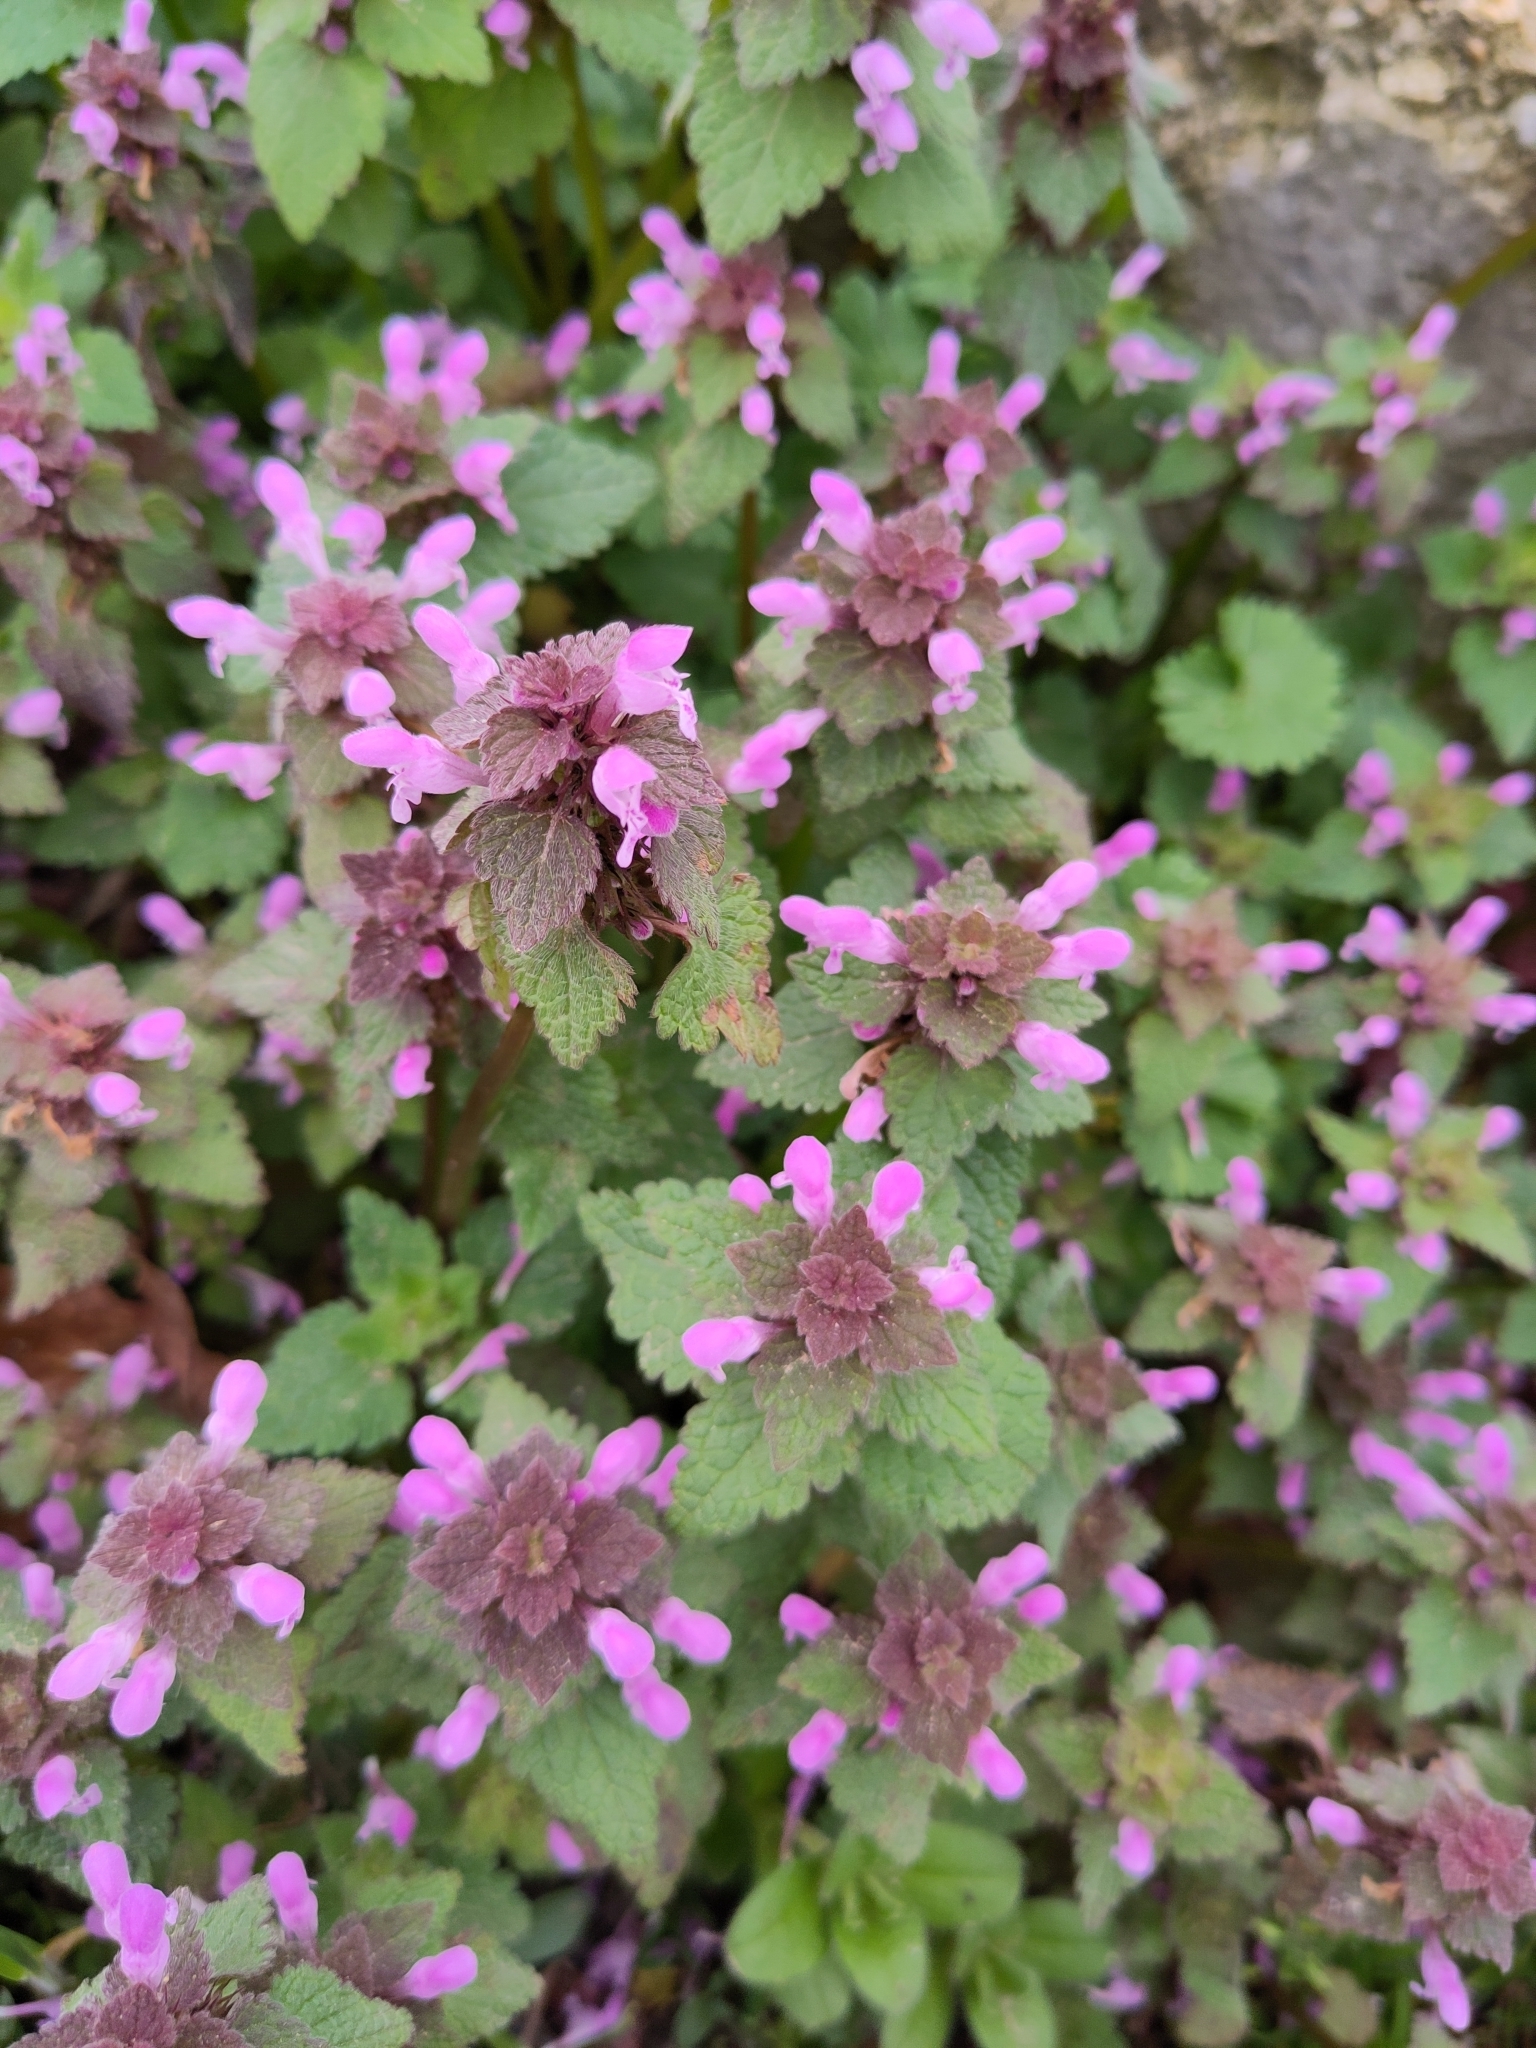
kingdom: Plantae
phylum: Tracheophyta
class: Magnoliopsida
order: Lamiales
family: Lamiaceae
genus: Lamium
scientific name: Lamium purpureum
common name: Red dead-nettle
